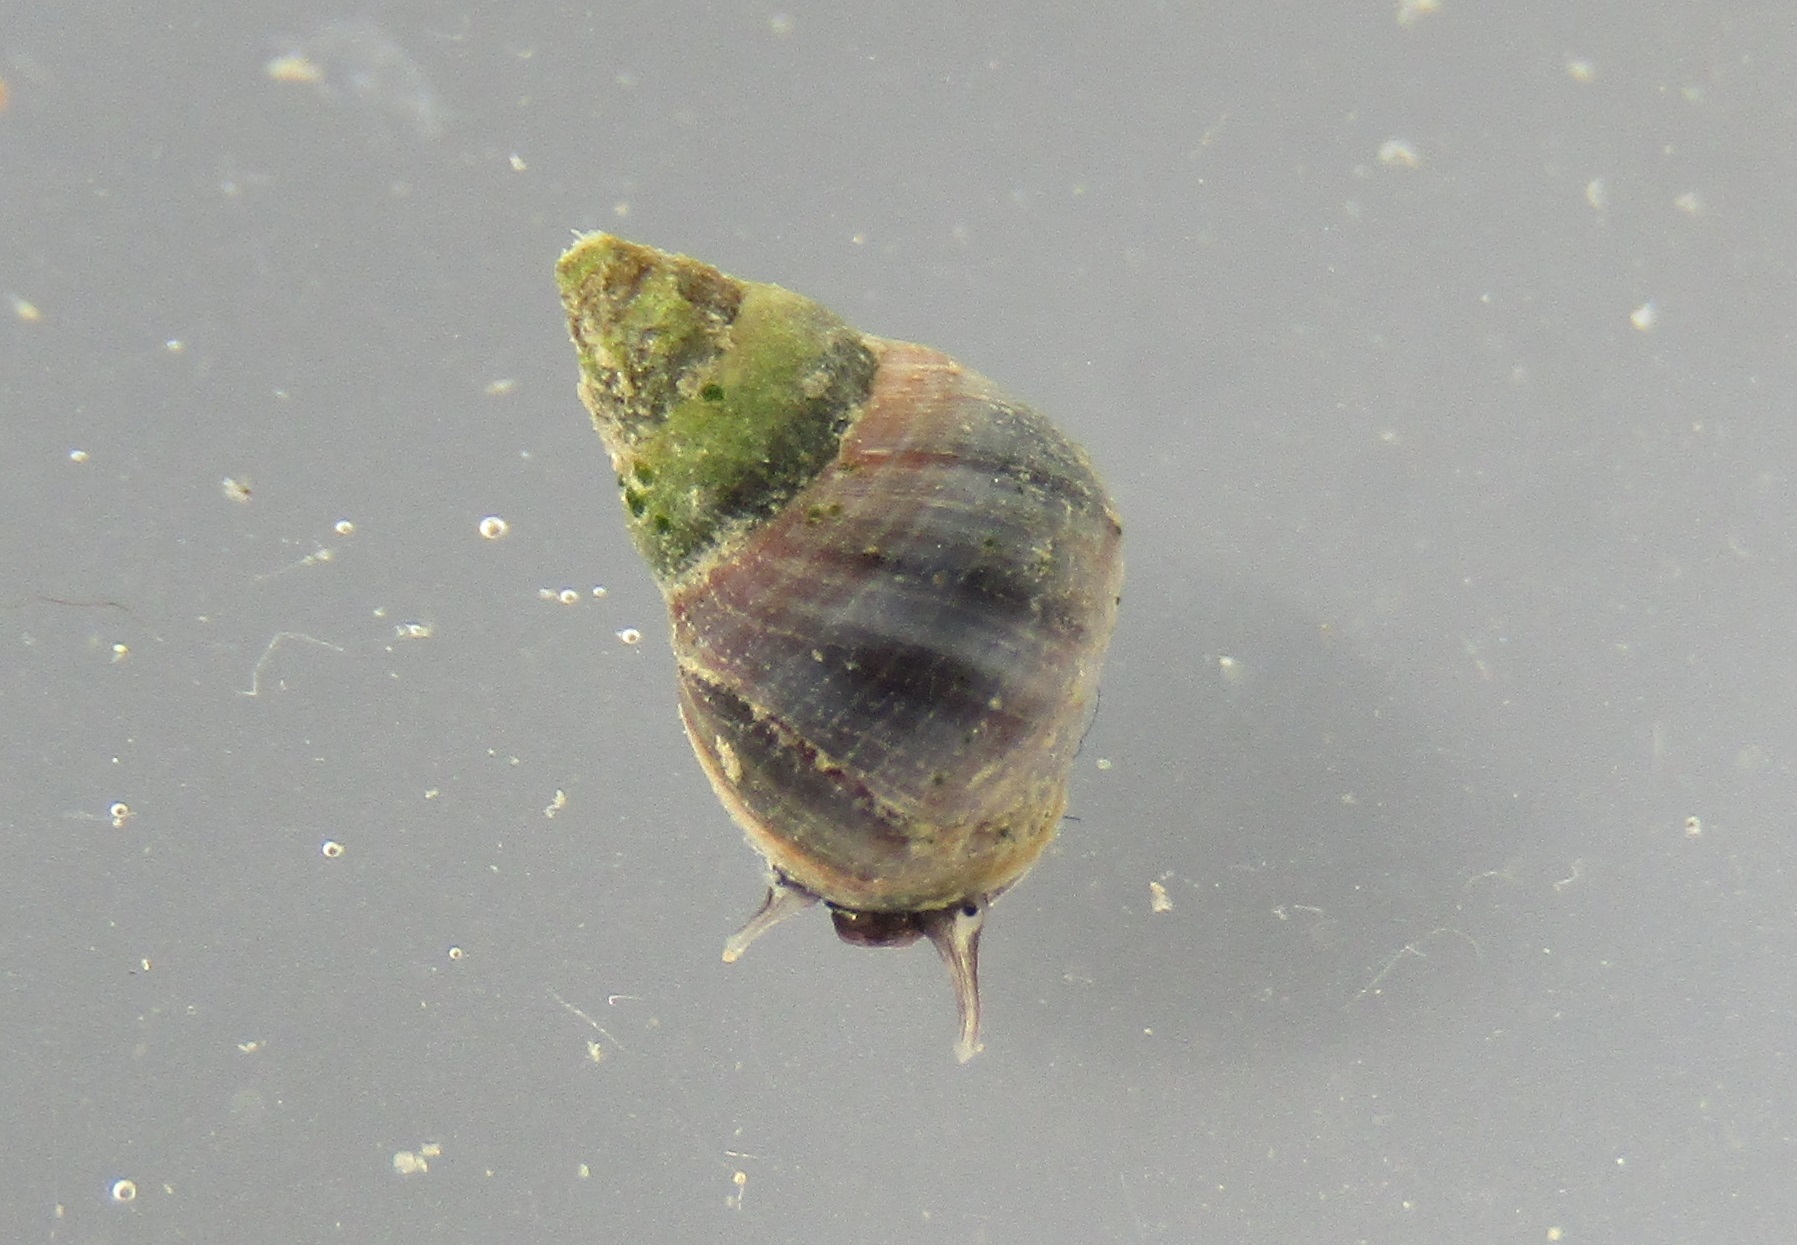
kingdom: Animalia
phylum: Mollusca
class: Gastropoda
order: Littorinimorpha
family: Littorinidae
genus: Austrolittorina
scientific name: Austrolittorina antipodum
